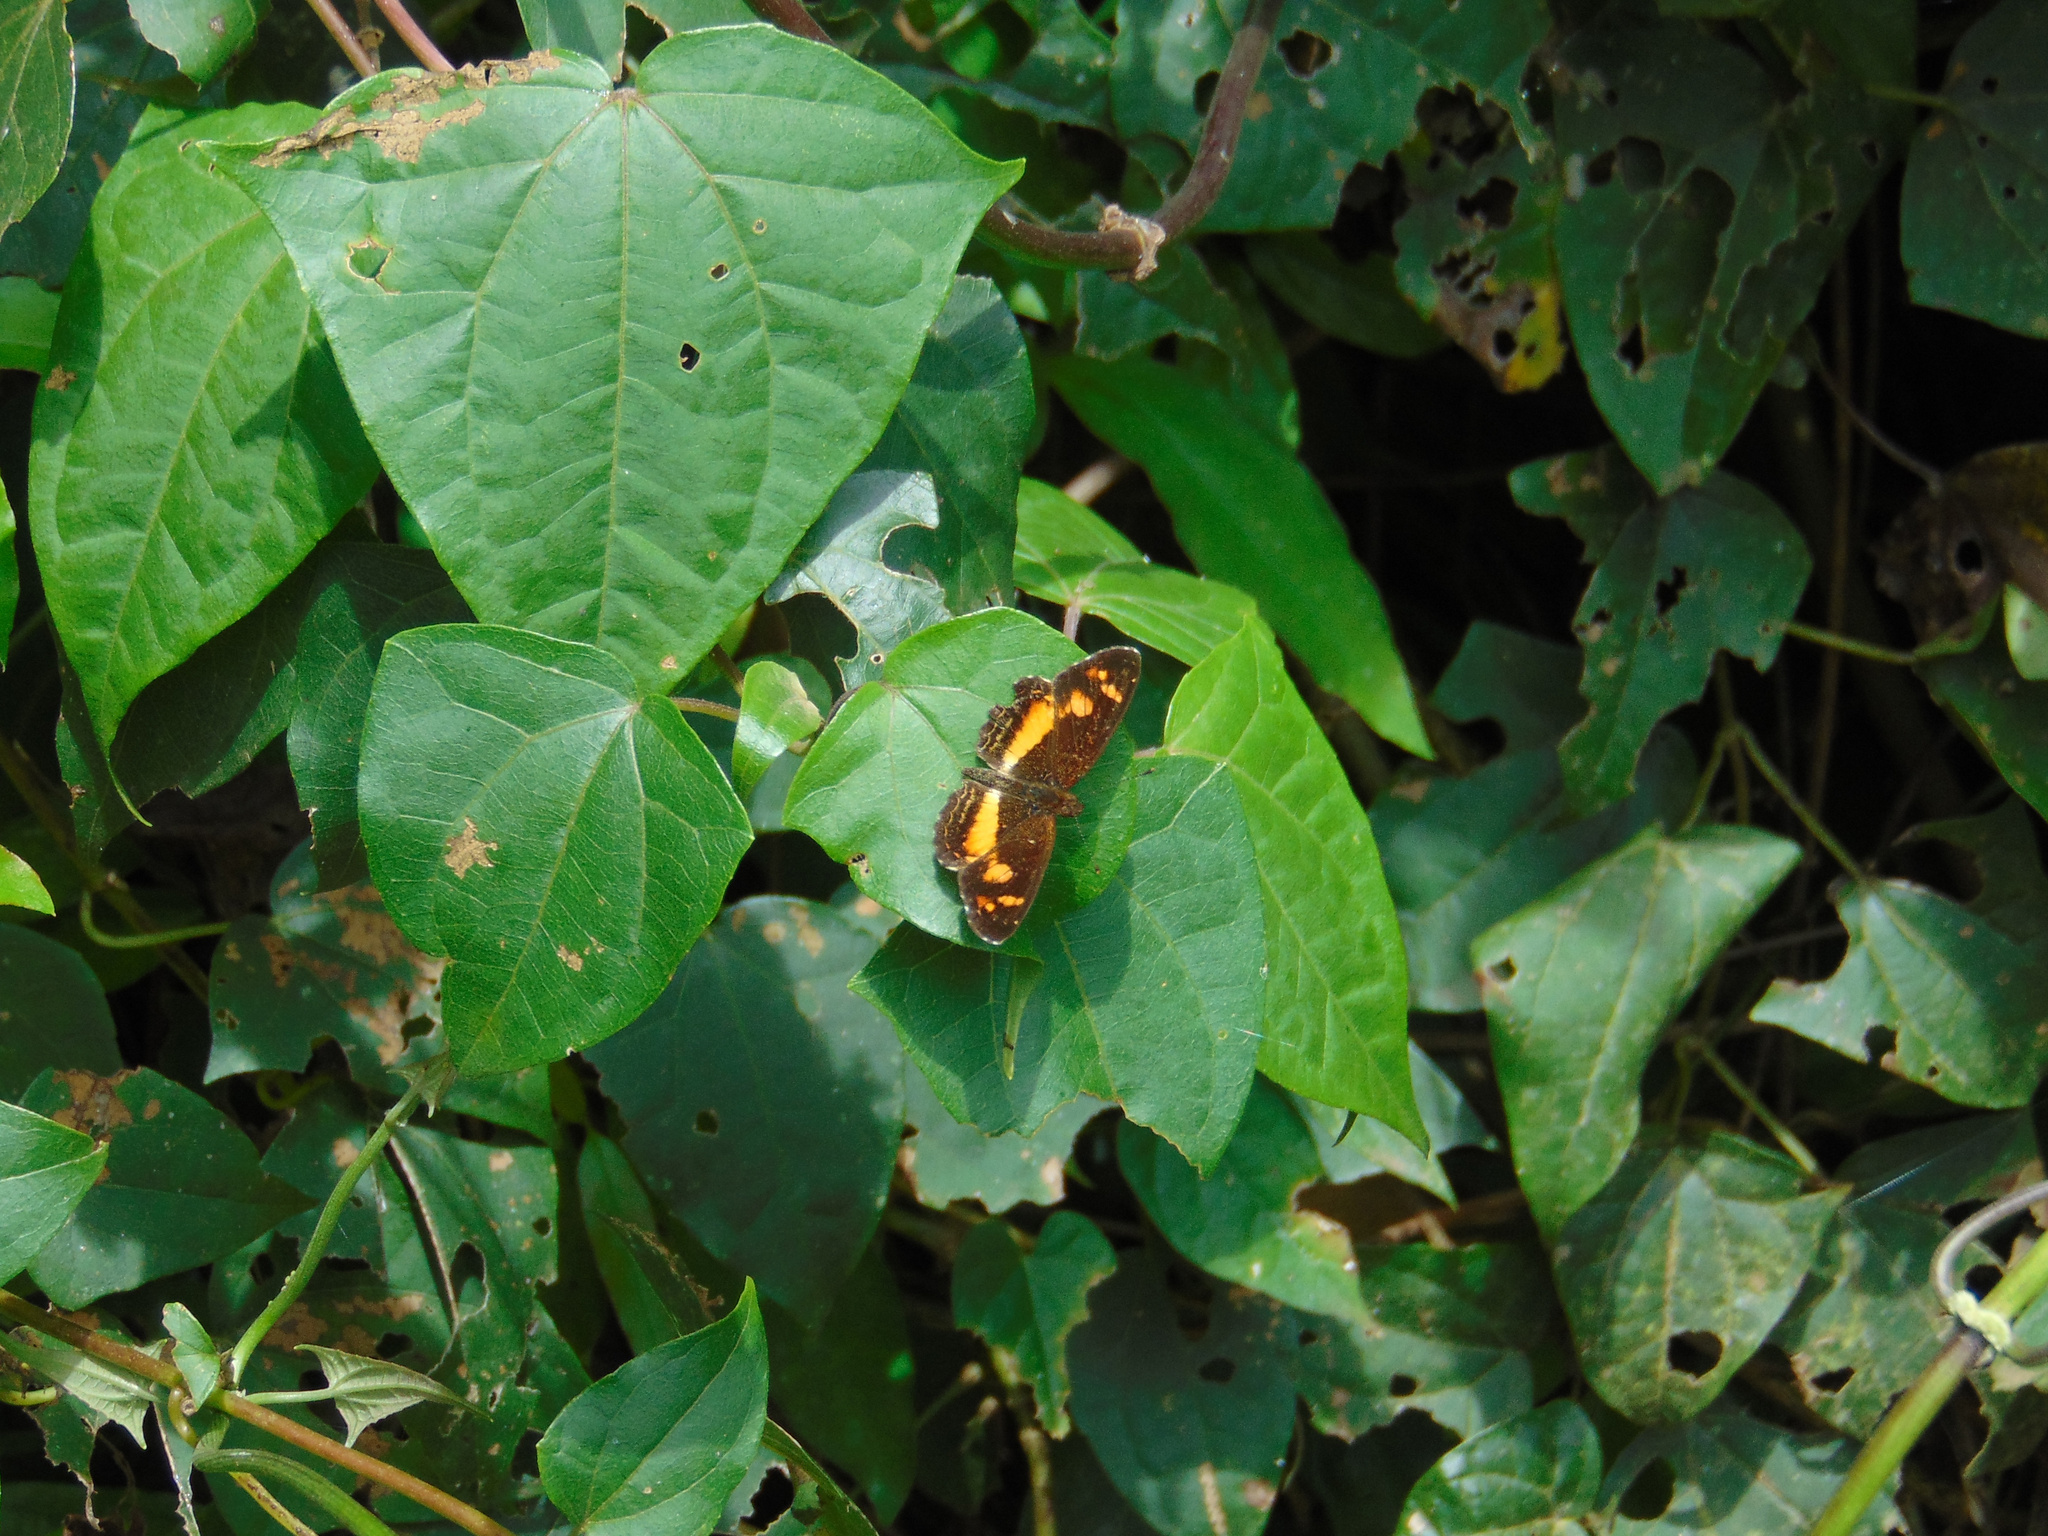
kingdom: Animalia
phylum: Arthropoda
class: Insecta
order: Lepidoptera
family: Nymphalidae
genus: Ortilia
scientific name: Ortilia orticas
